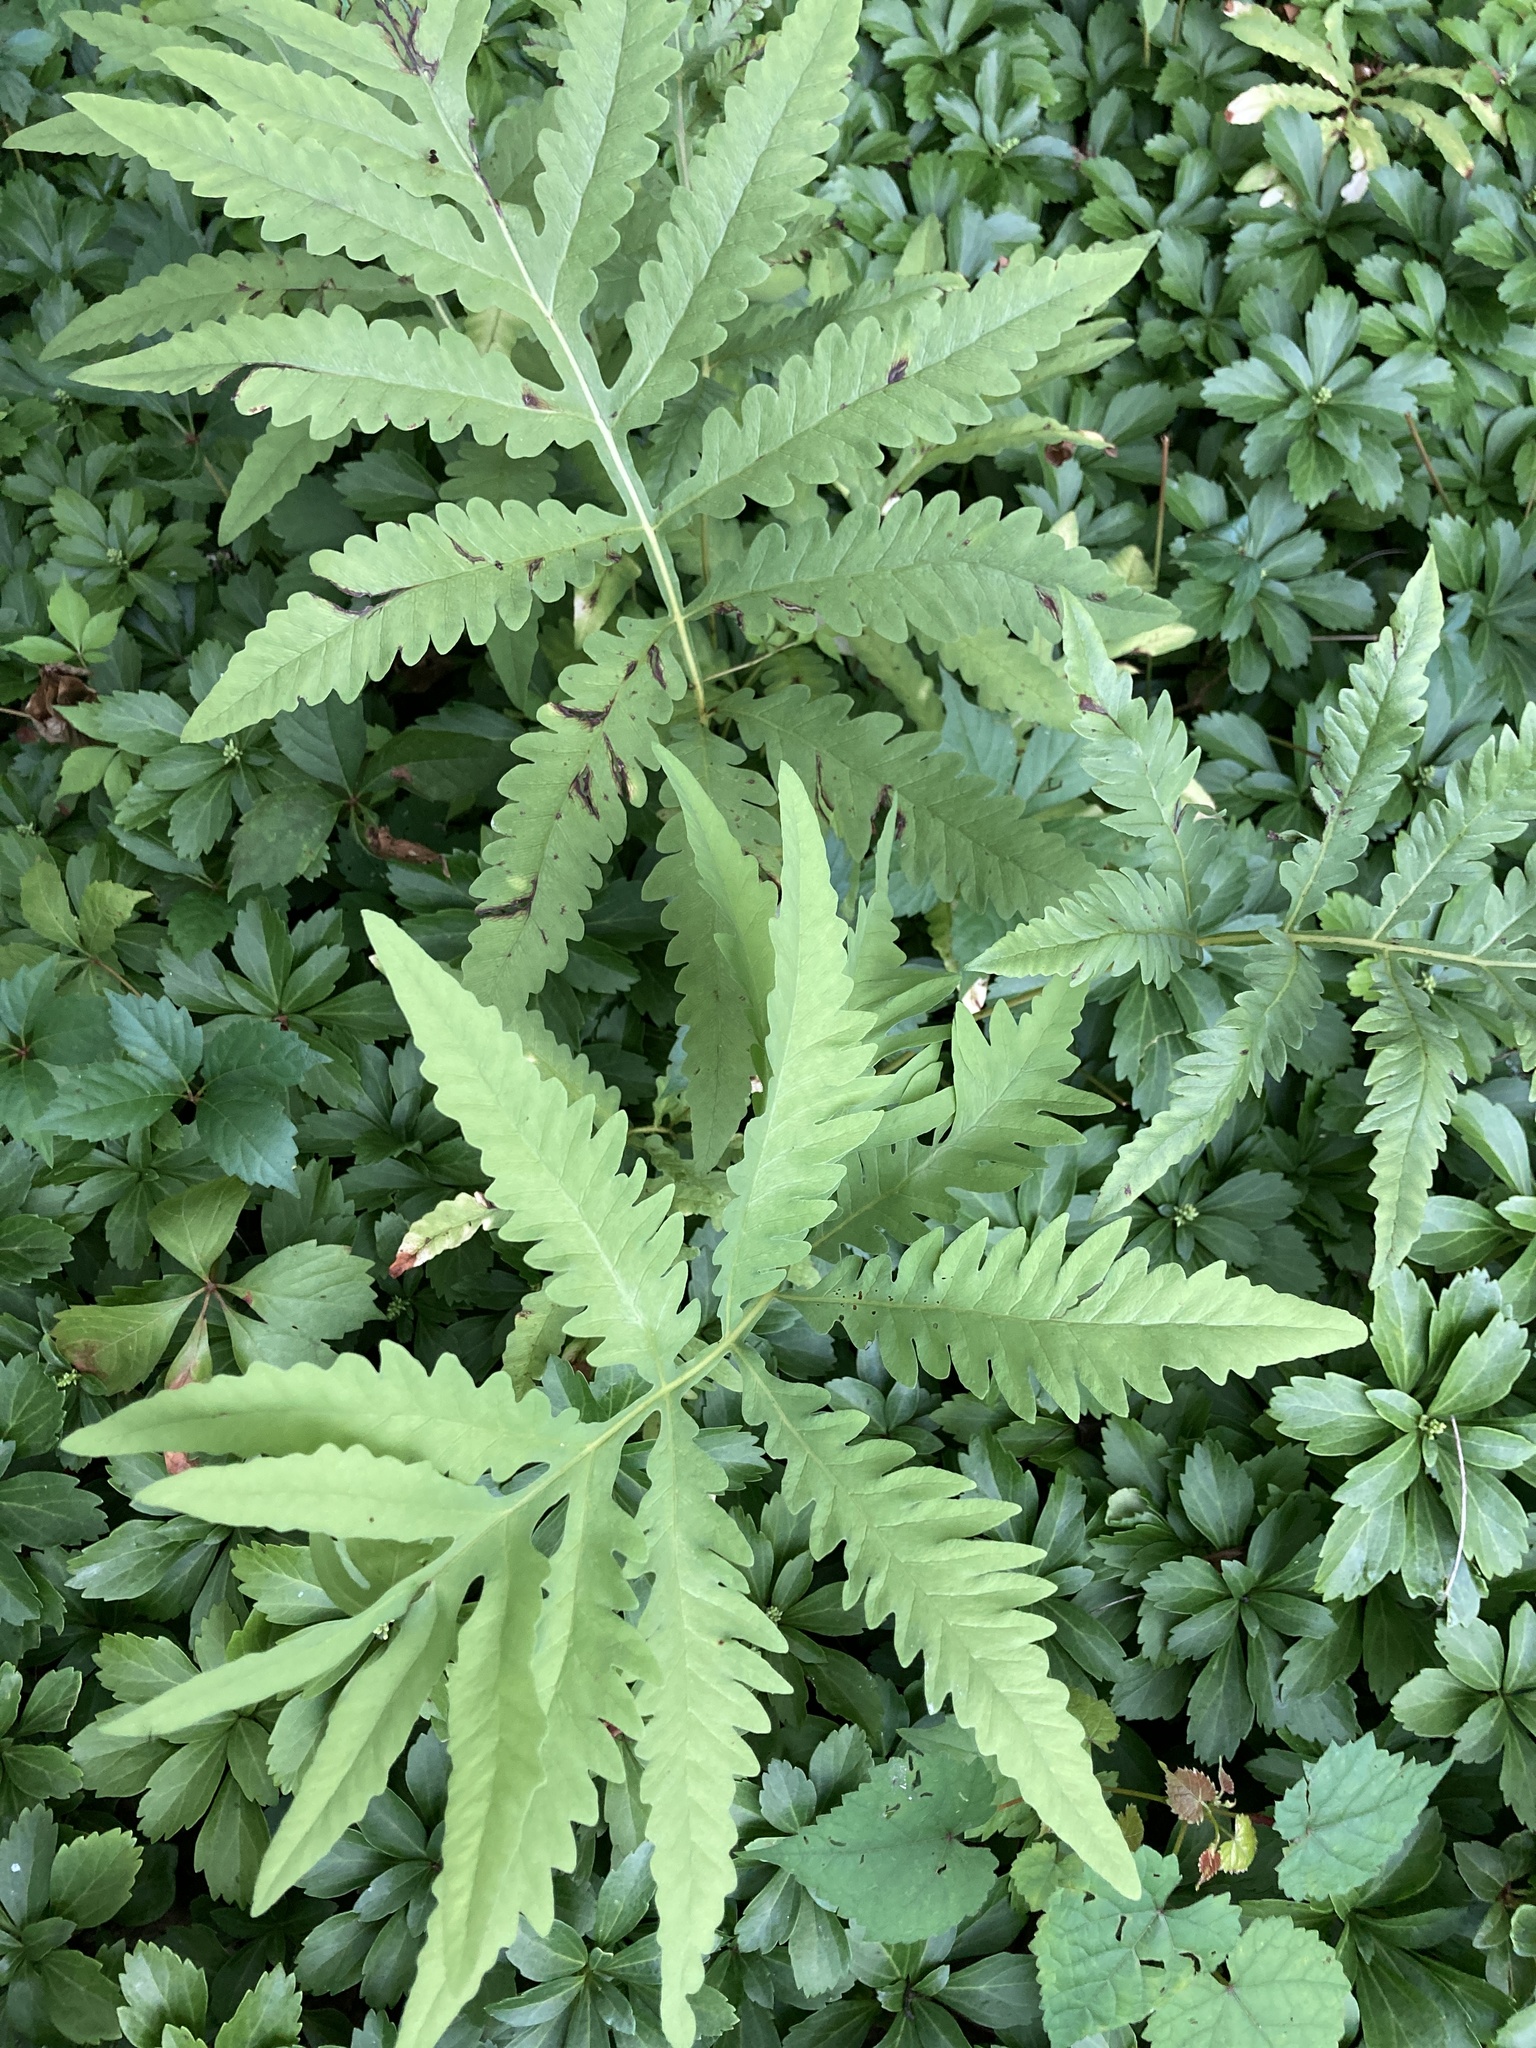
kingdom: Plantae
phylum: Tracheophyta
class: Polypodiopsida
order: Polypodiales
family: Onocleaceae
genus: Onoclea
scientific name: Onoclea sensibilis
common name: Sensitive fern
